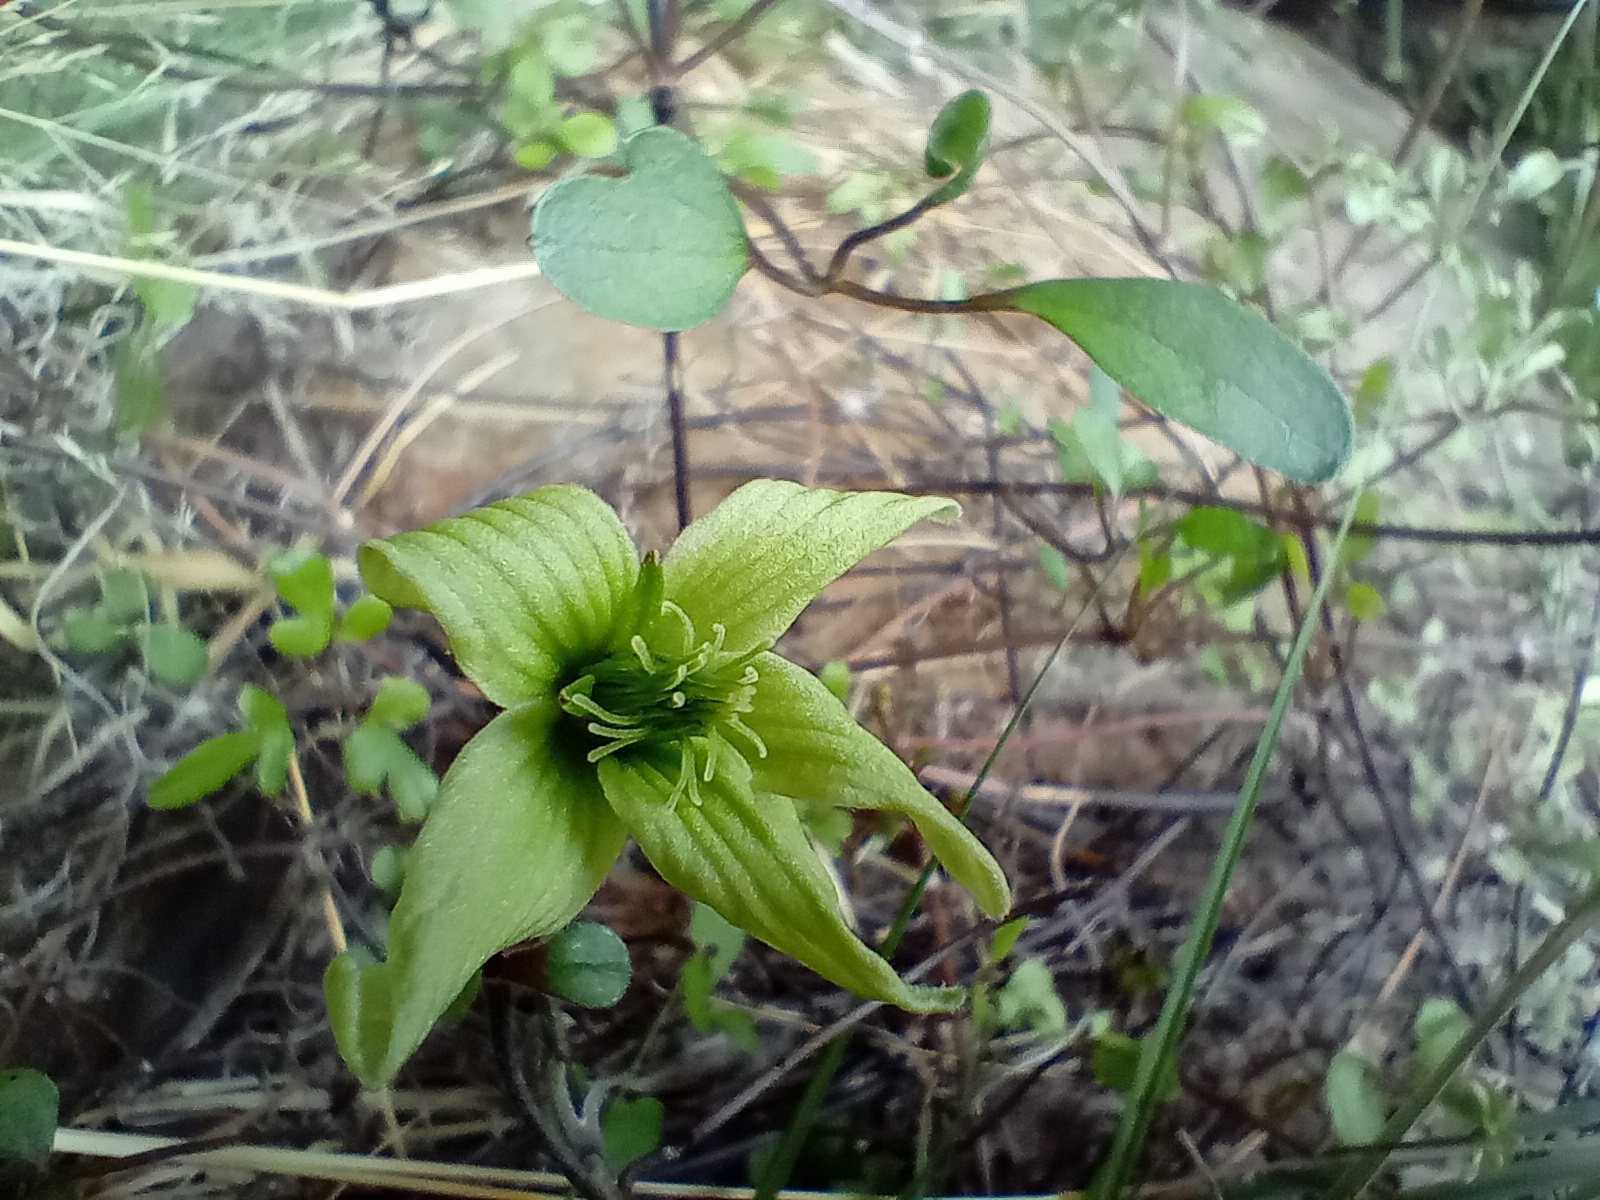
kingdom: Plantae
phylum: Tracheophyta
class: Magnoliopsida
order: Ranunculales
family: Ranunculaceae
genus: Clematis
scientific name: Clematis marata
